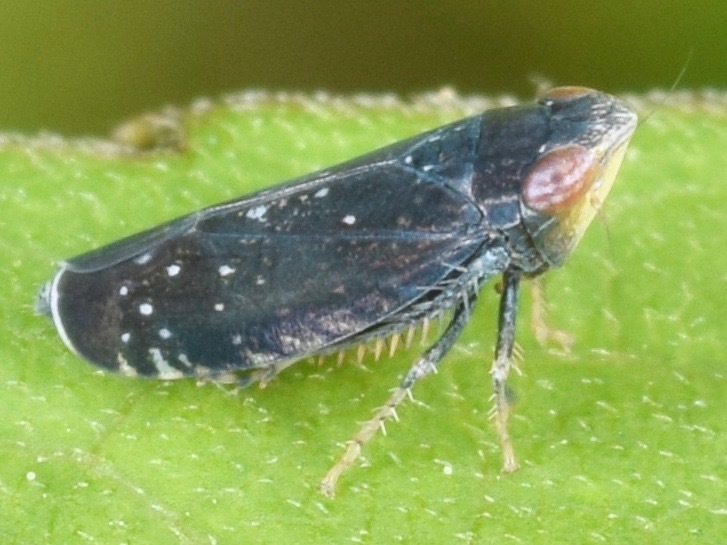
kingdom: Animalia
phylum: Arthropoda
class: Insecta
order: Hemiptera
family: Cicadellidae
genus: Scaphytopius
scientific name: Scaphytopius frontalis
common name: The yellow-faced leafhopper
